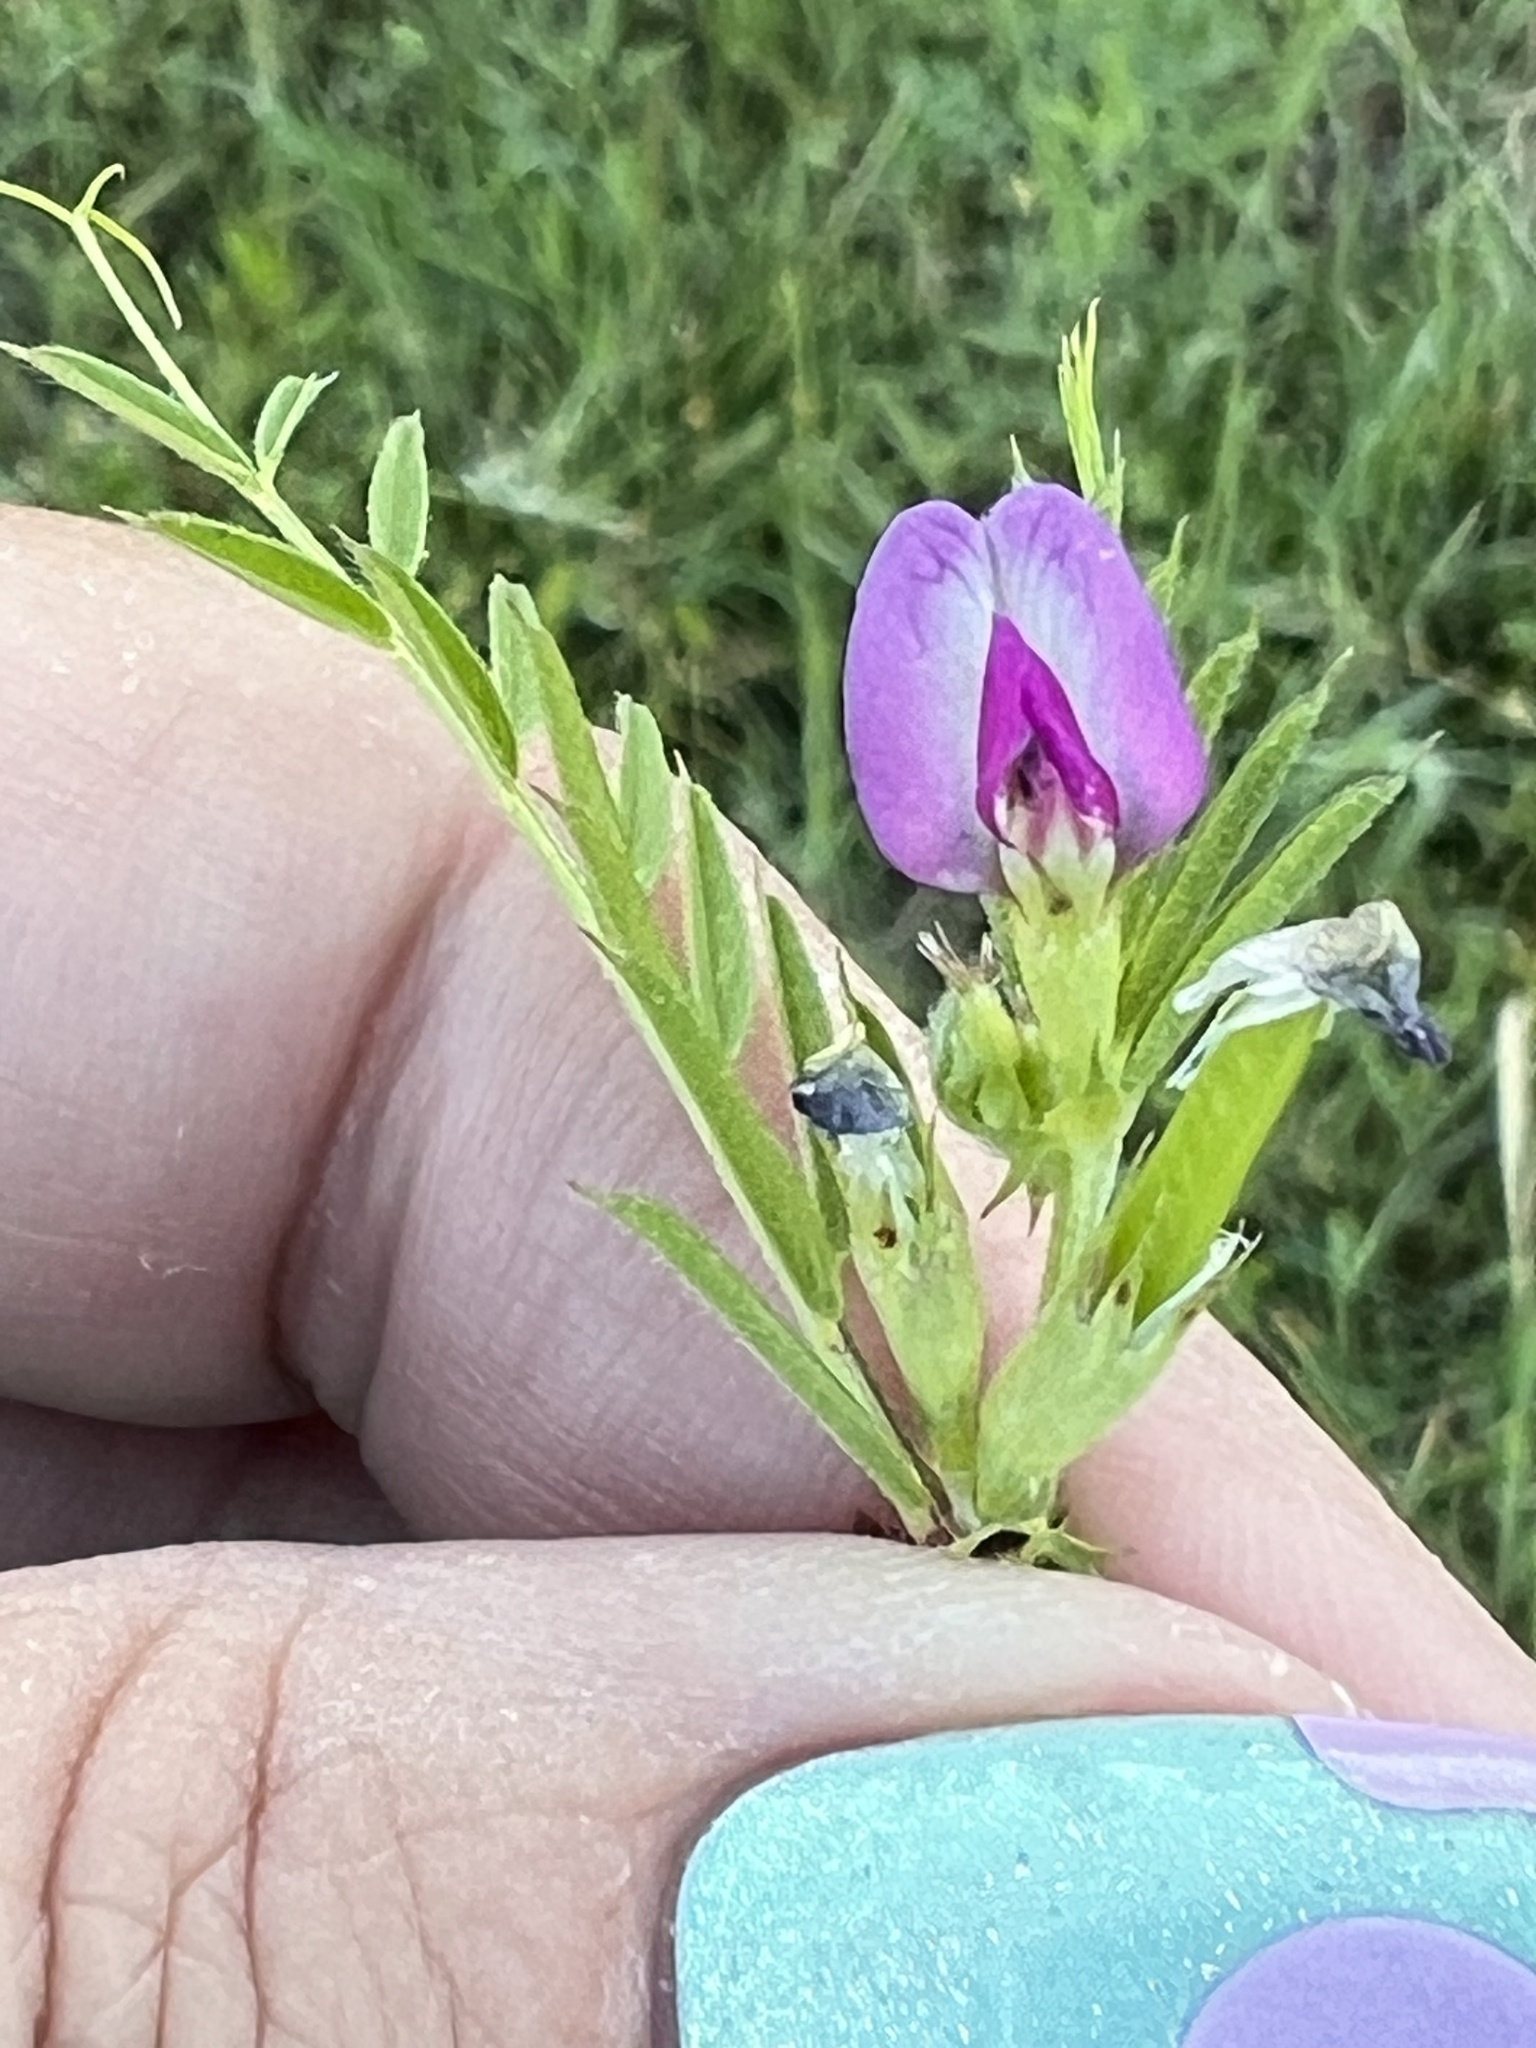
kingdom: Plantae
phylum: Tracheophyta
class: Magnoliopsida
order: Fabales
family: Fabaceae
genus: Vicia
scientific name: Vicia sativa
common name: Garden vetch
